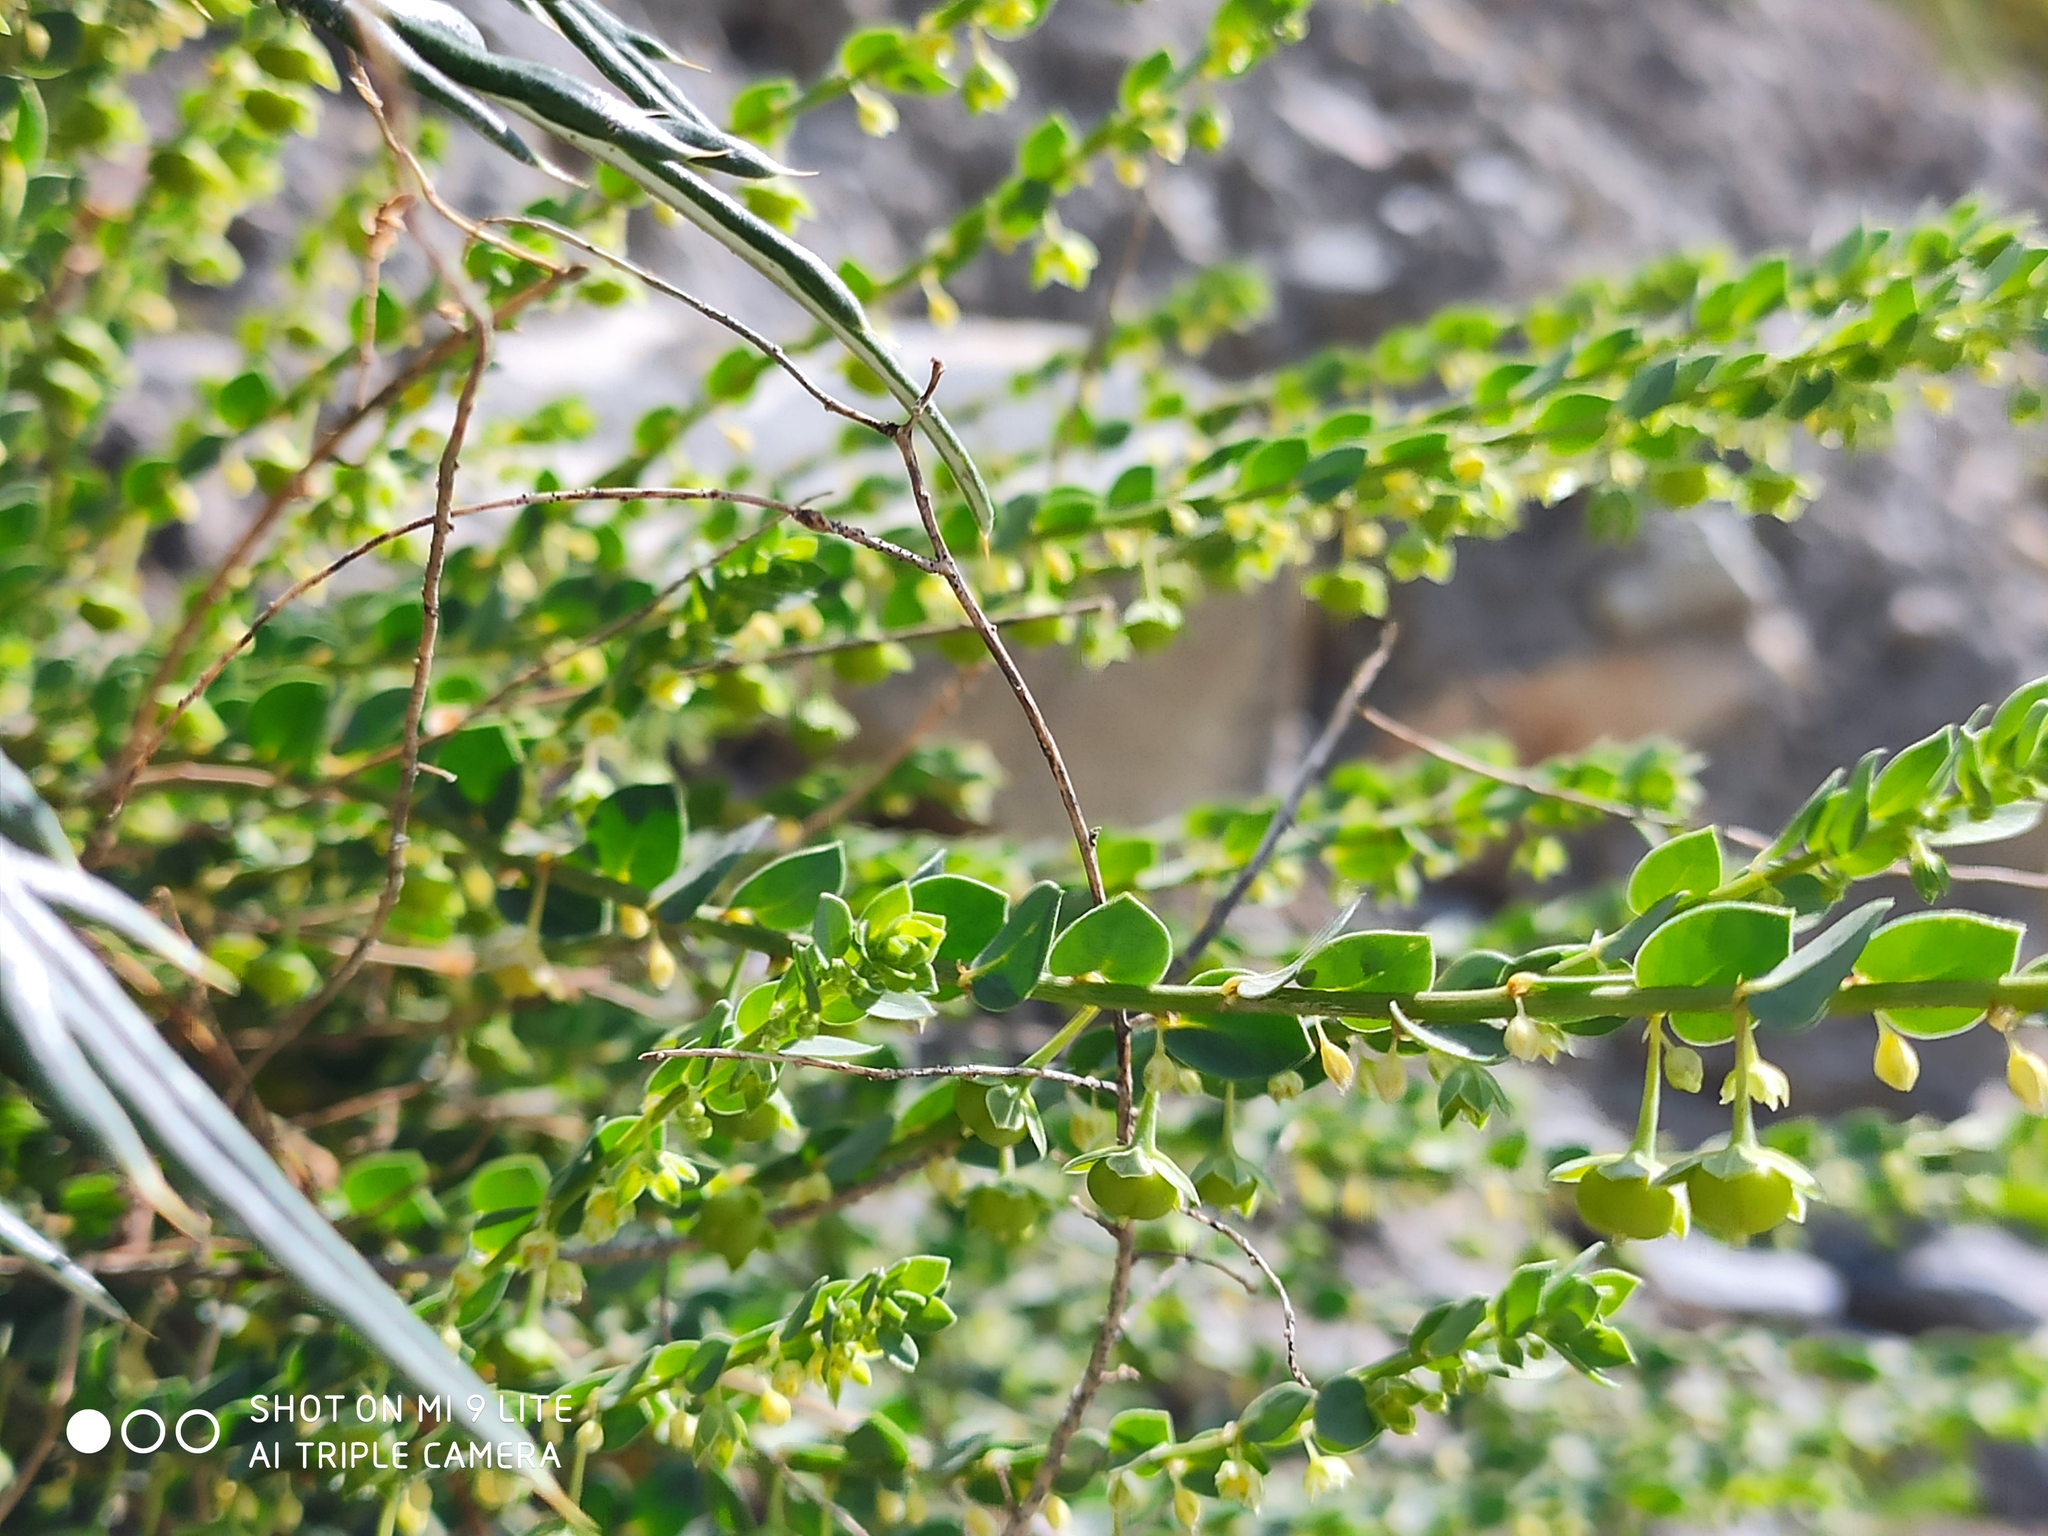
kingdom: Plantae
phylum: Tracheophyta
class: Magnoliopsida
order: Malpighiales
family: Phyllanthaceae
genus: Andrachne
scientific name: Andrachne telephioides
